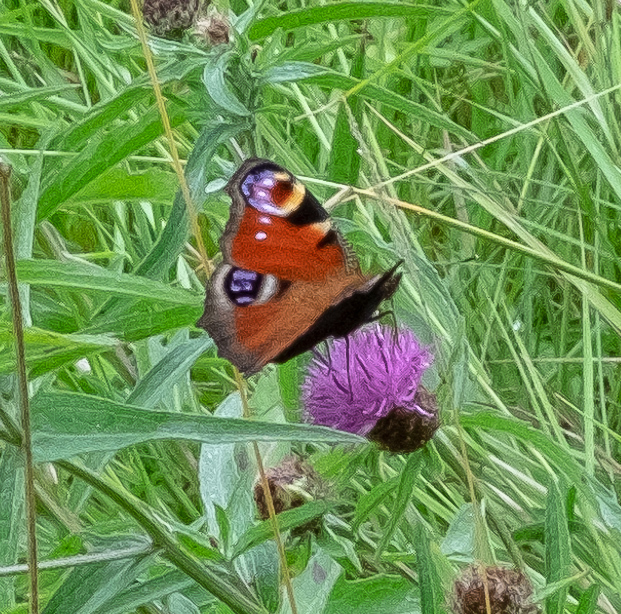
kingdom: Animalia
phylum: Arthropoda
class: Insecta
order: Lepidoptera
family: Nymphalidae
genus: Aglais
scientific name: Aglais io
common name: Peacock
